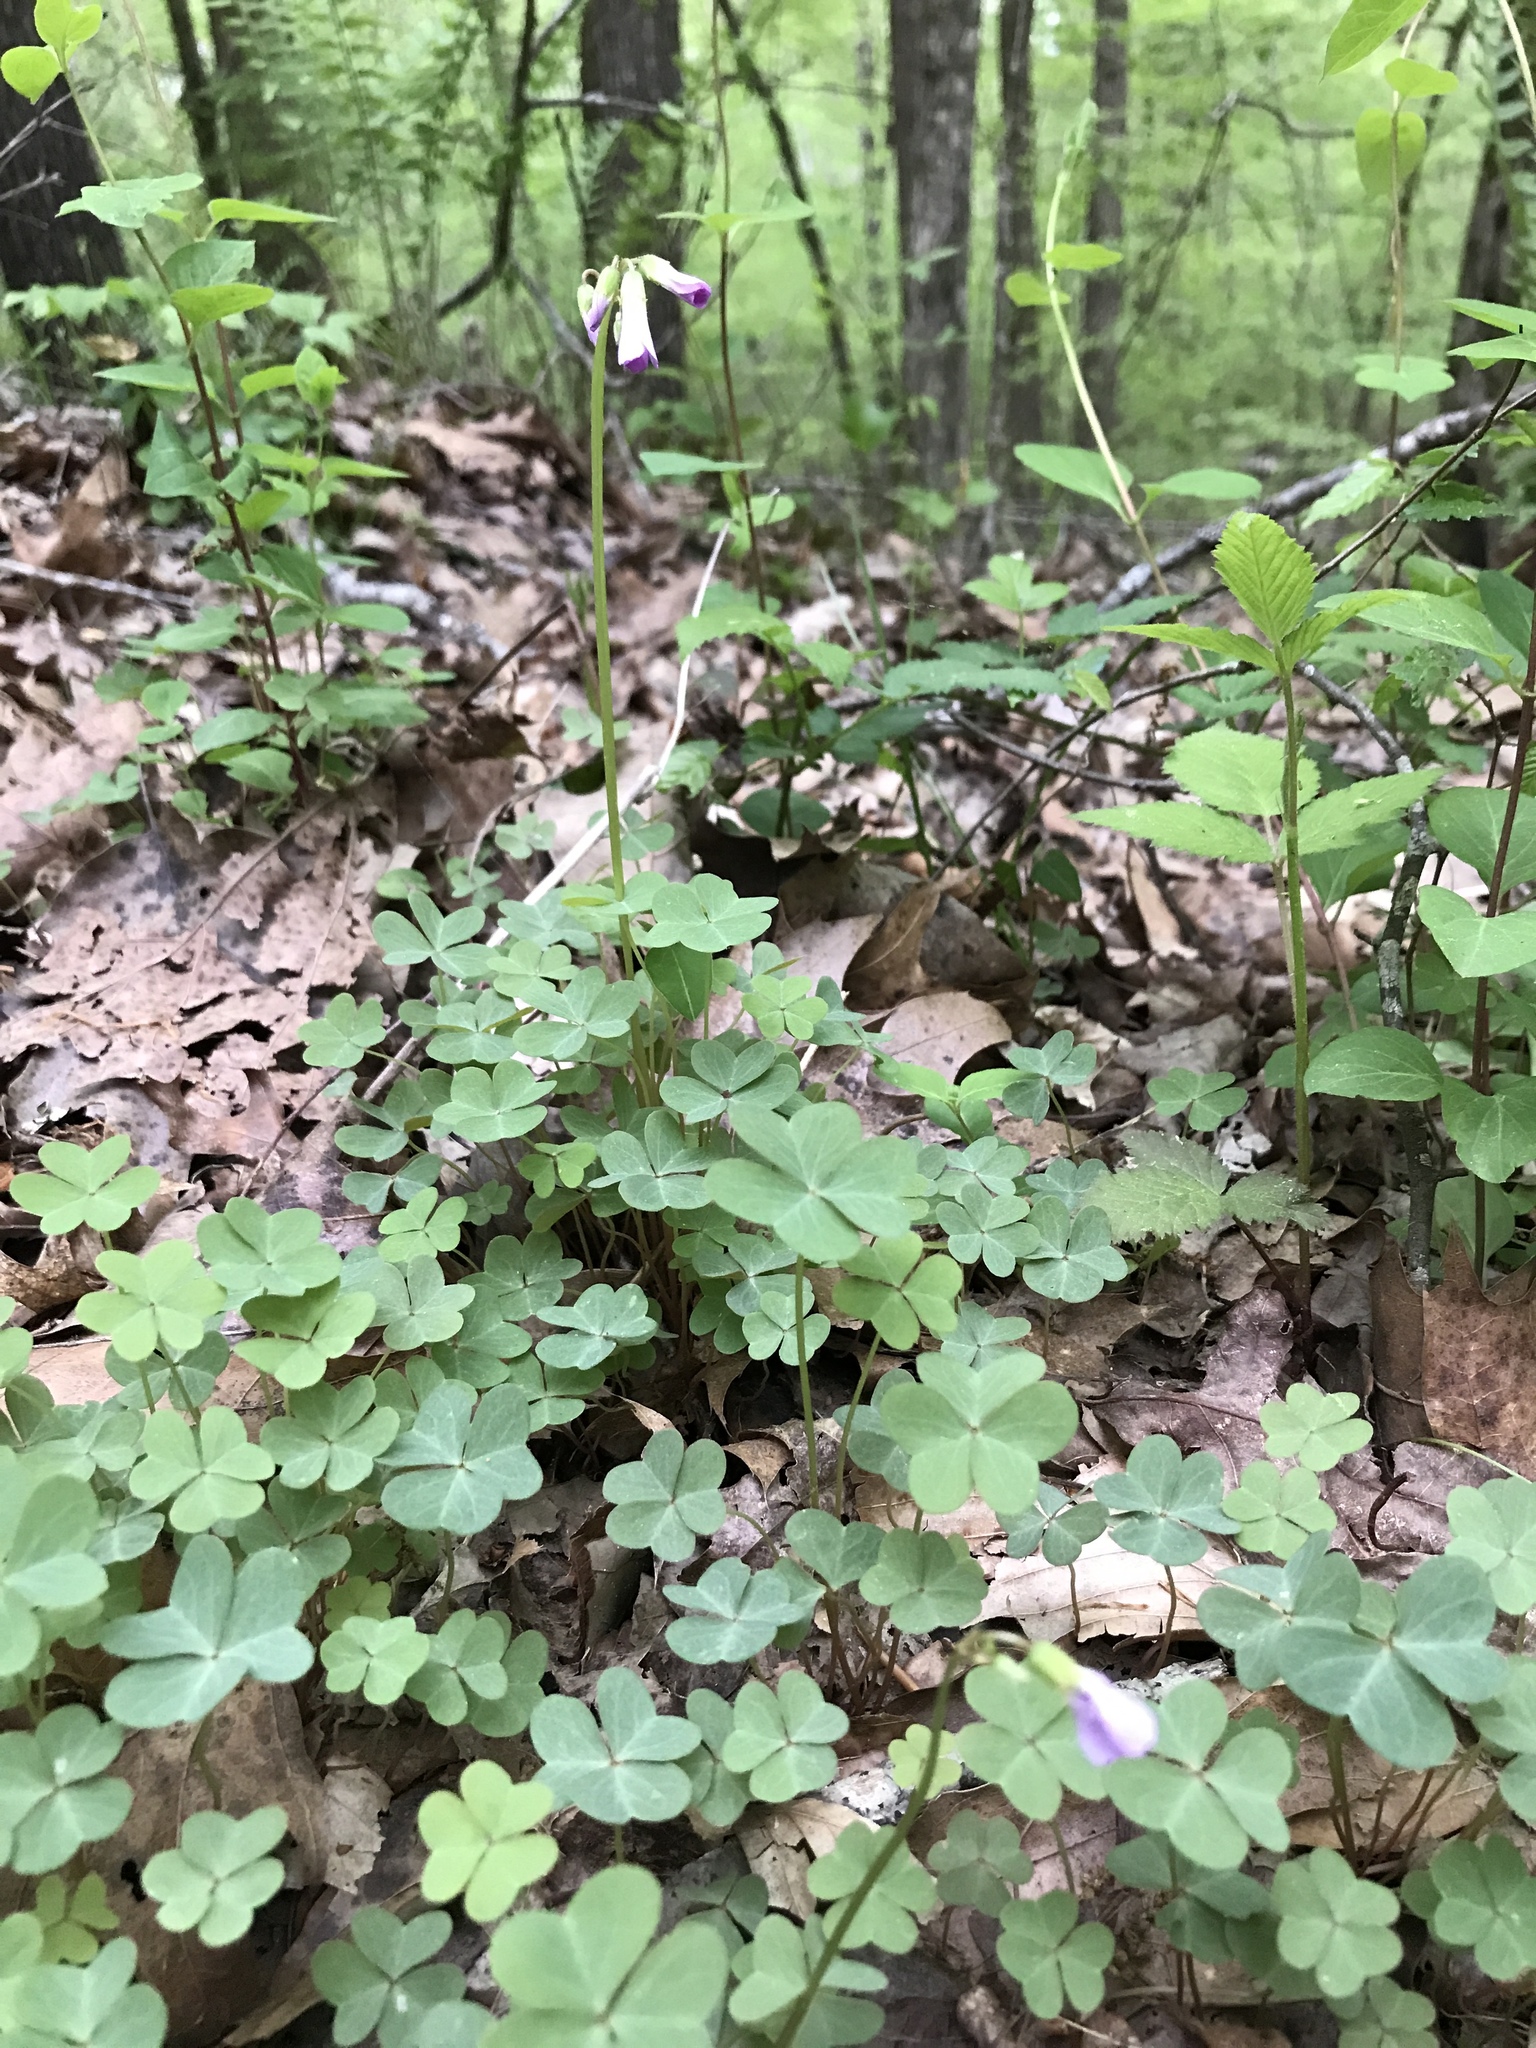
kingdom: Plantae
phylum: Tracheophyta
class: Magnoliopsida
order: Oxalidales
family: Oxalidaceae
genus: Oxalis
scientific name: Oxalis violacea
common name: Violet wood-sorrel
